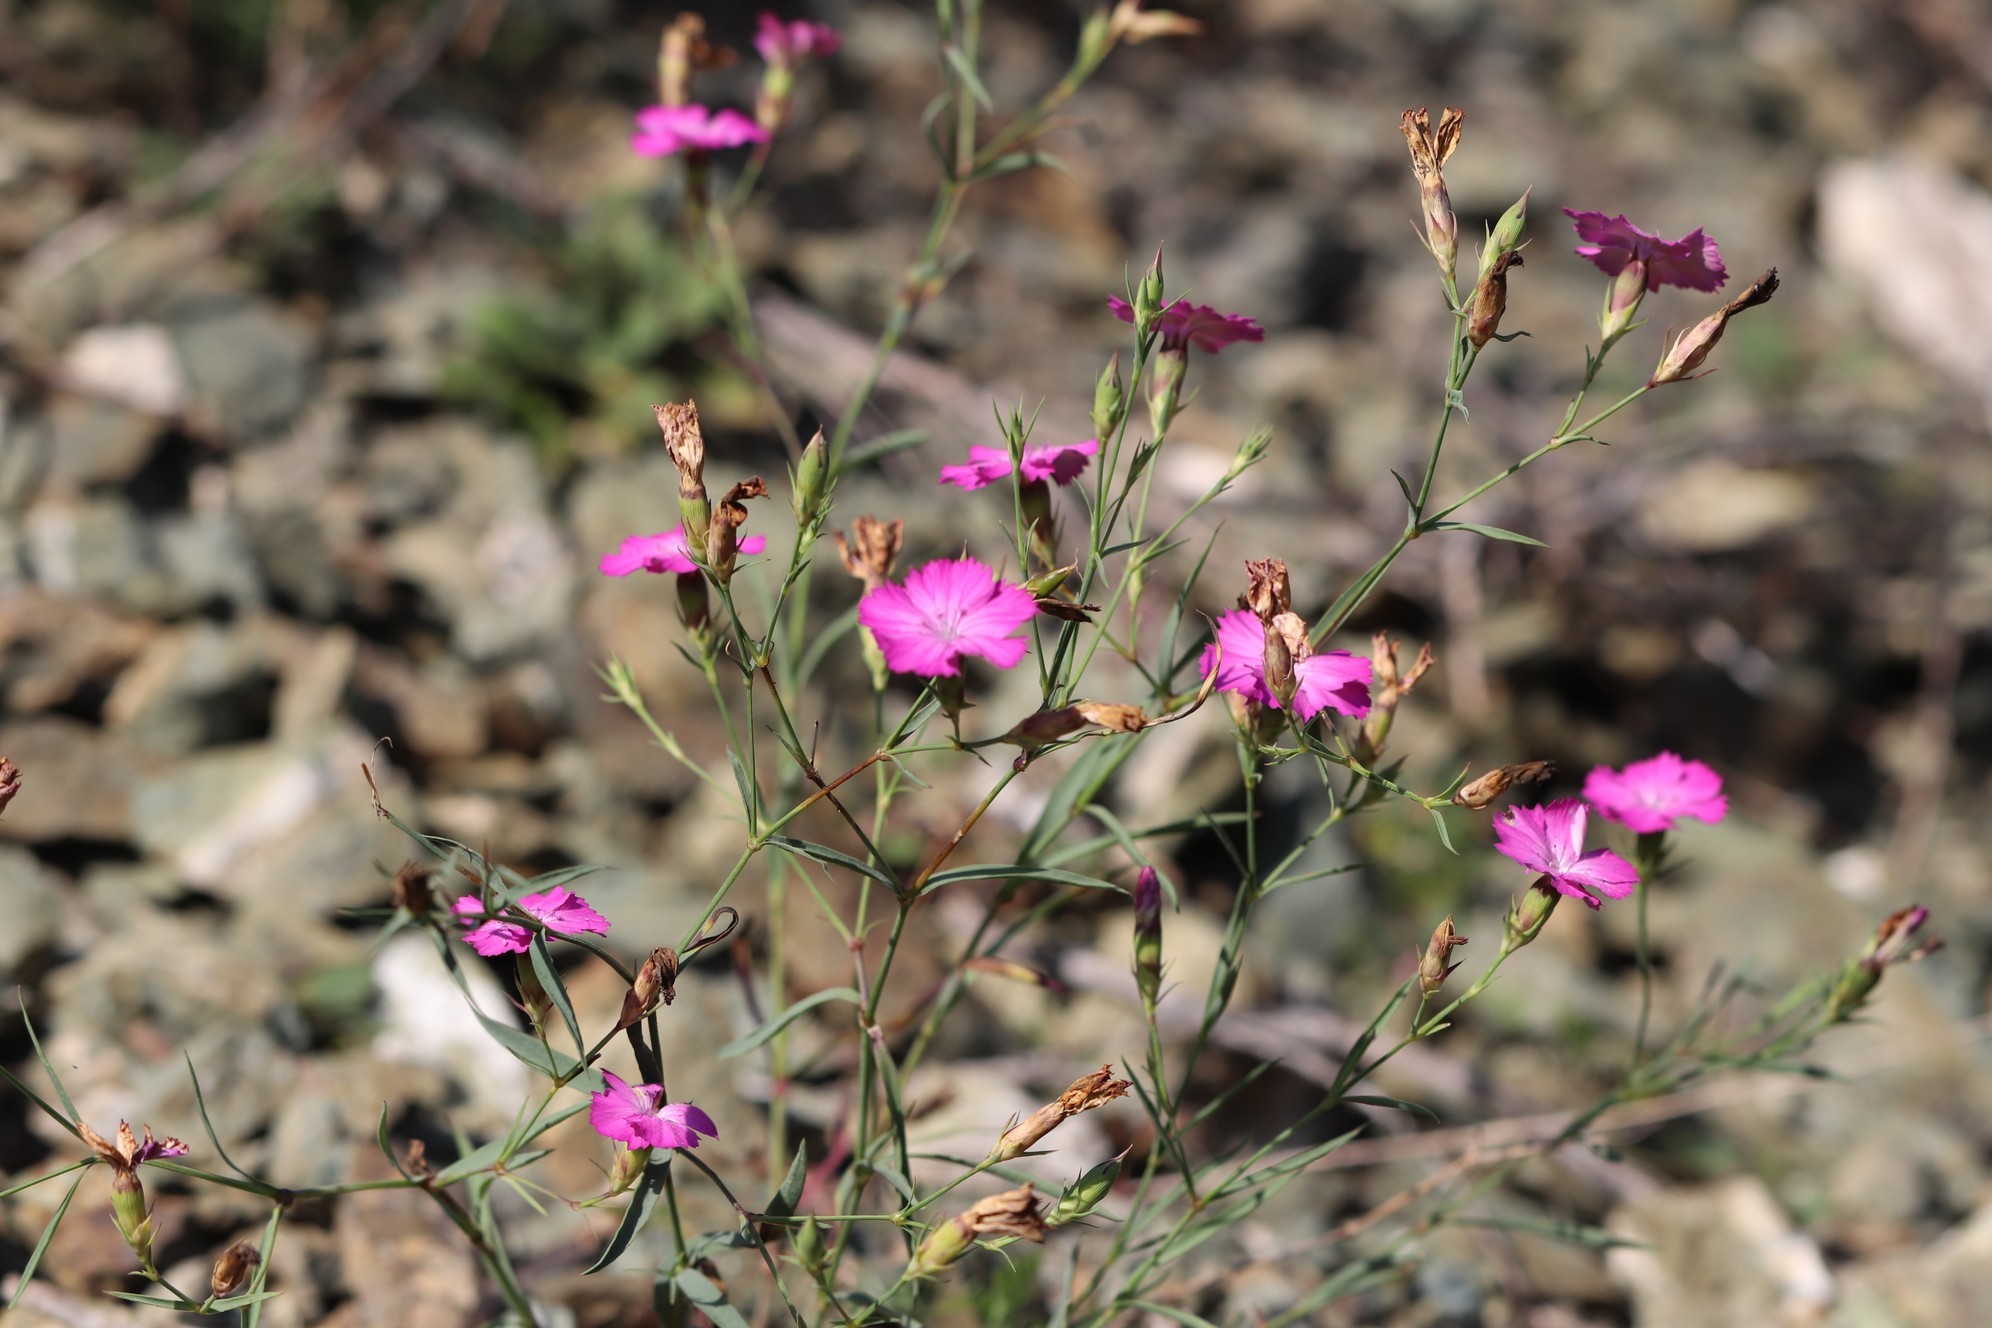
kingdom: Plantae
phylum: Tracheophyta
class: Magnoliopsida
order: Caryophyllales
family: Caryophyllaceae
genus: Dianthus
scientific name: Dianthus chinensis
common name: Rainbow pink
